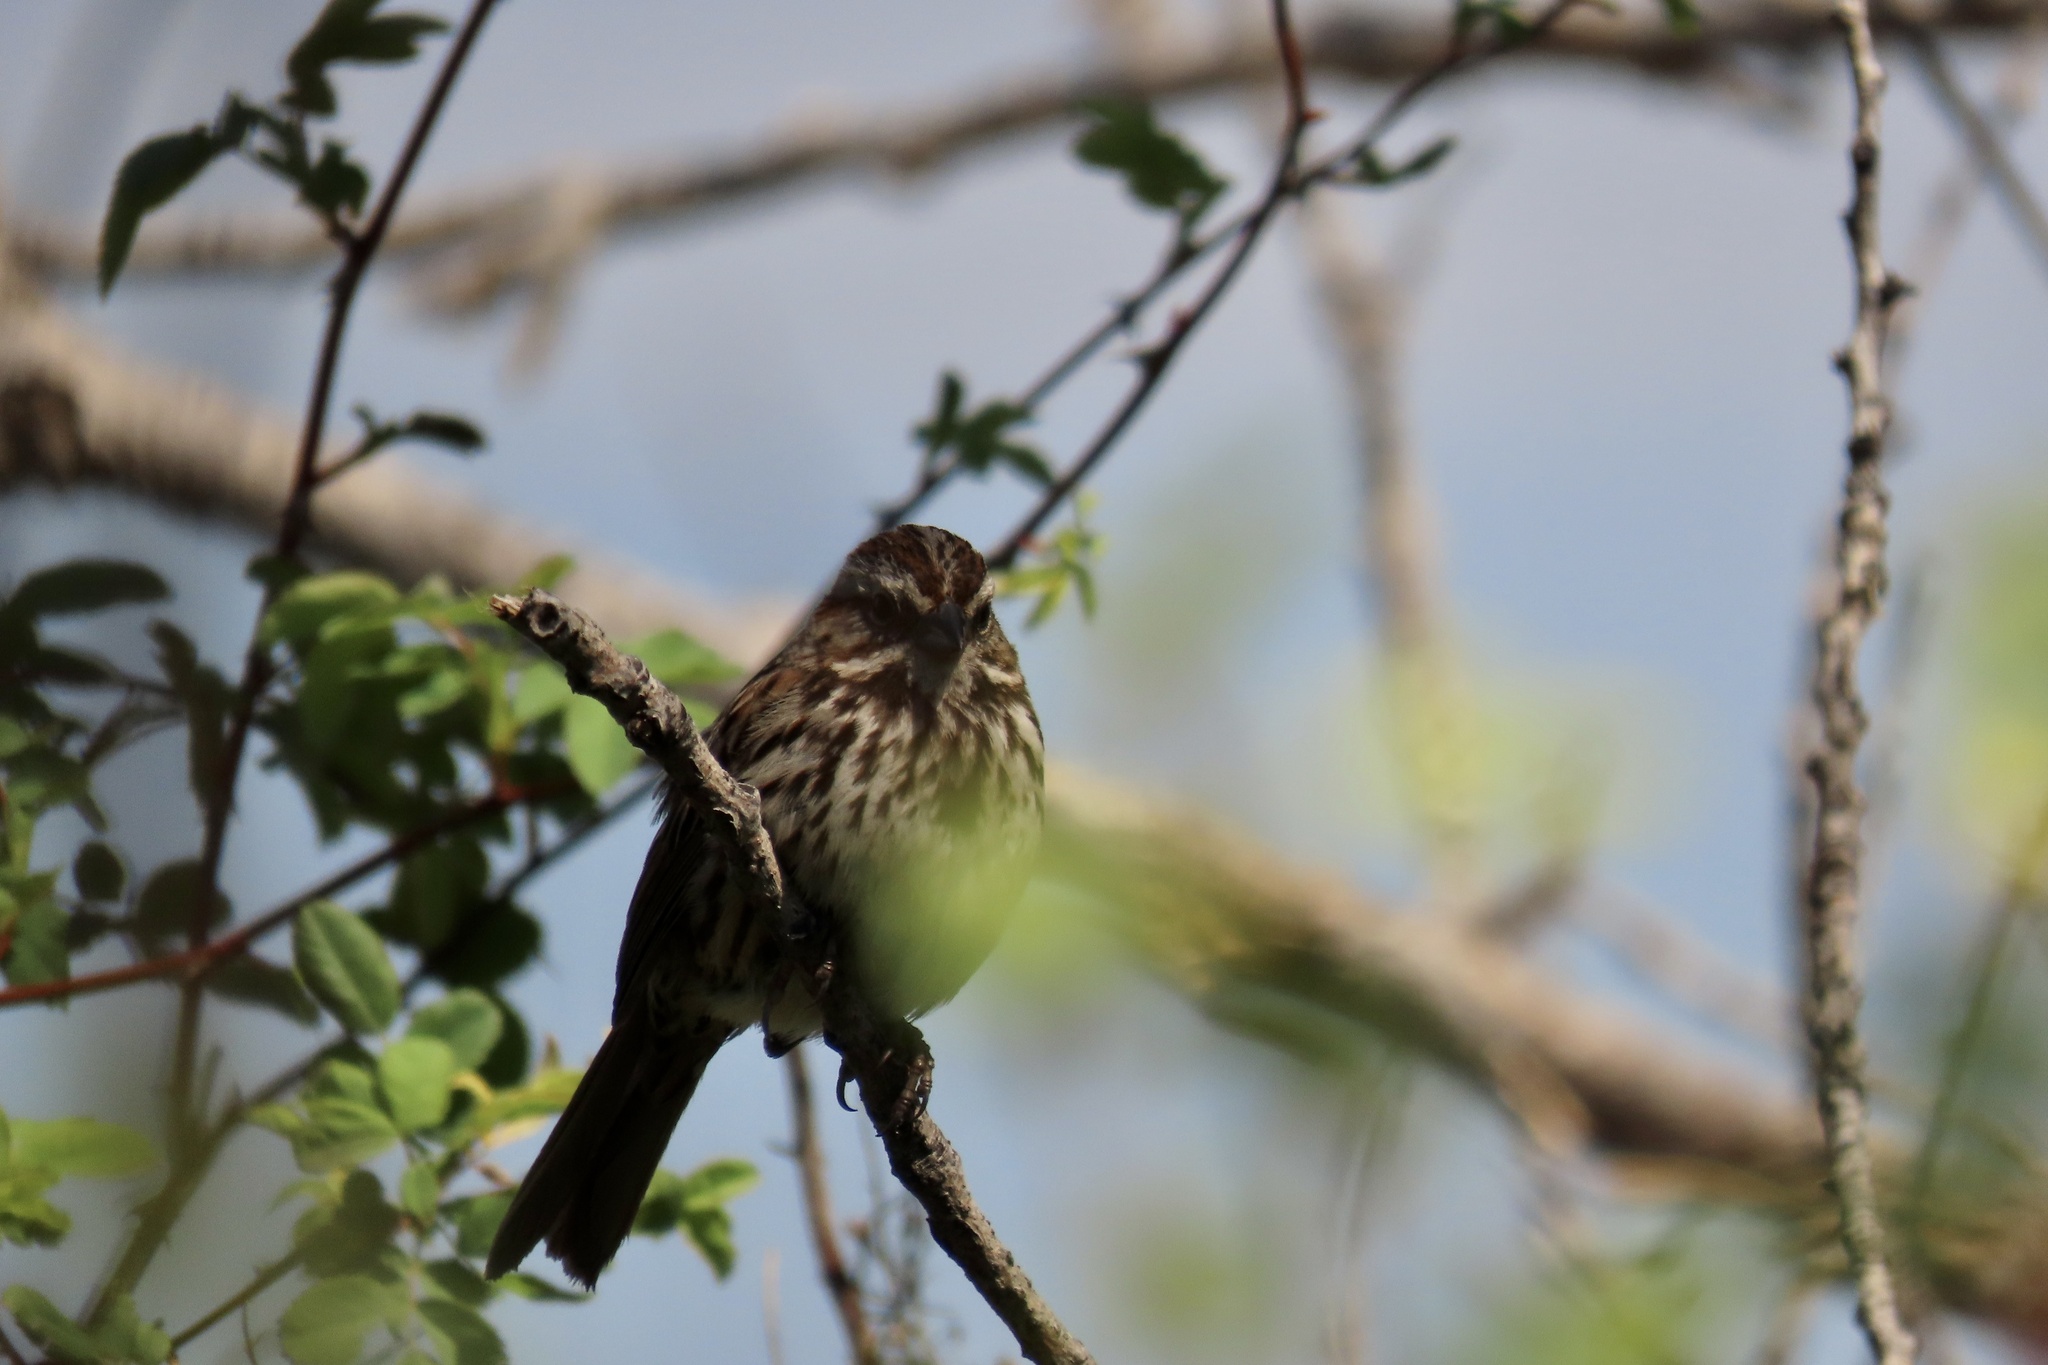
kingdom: Animalia
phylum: Chordata
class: Aves
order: Passeriformes
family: Passerellidae
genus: Melospiza
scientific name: Melospiza melodia
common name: Song sparrow
